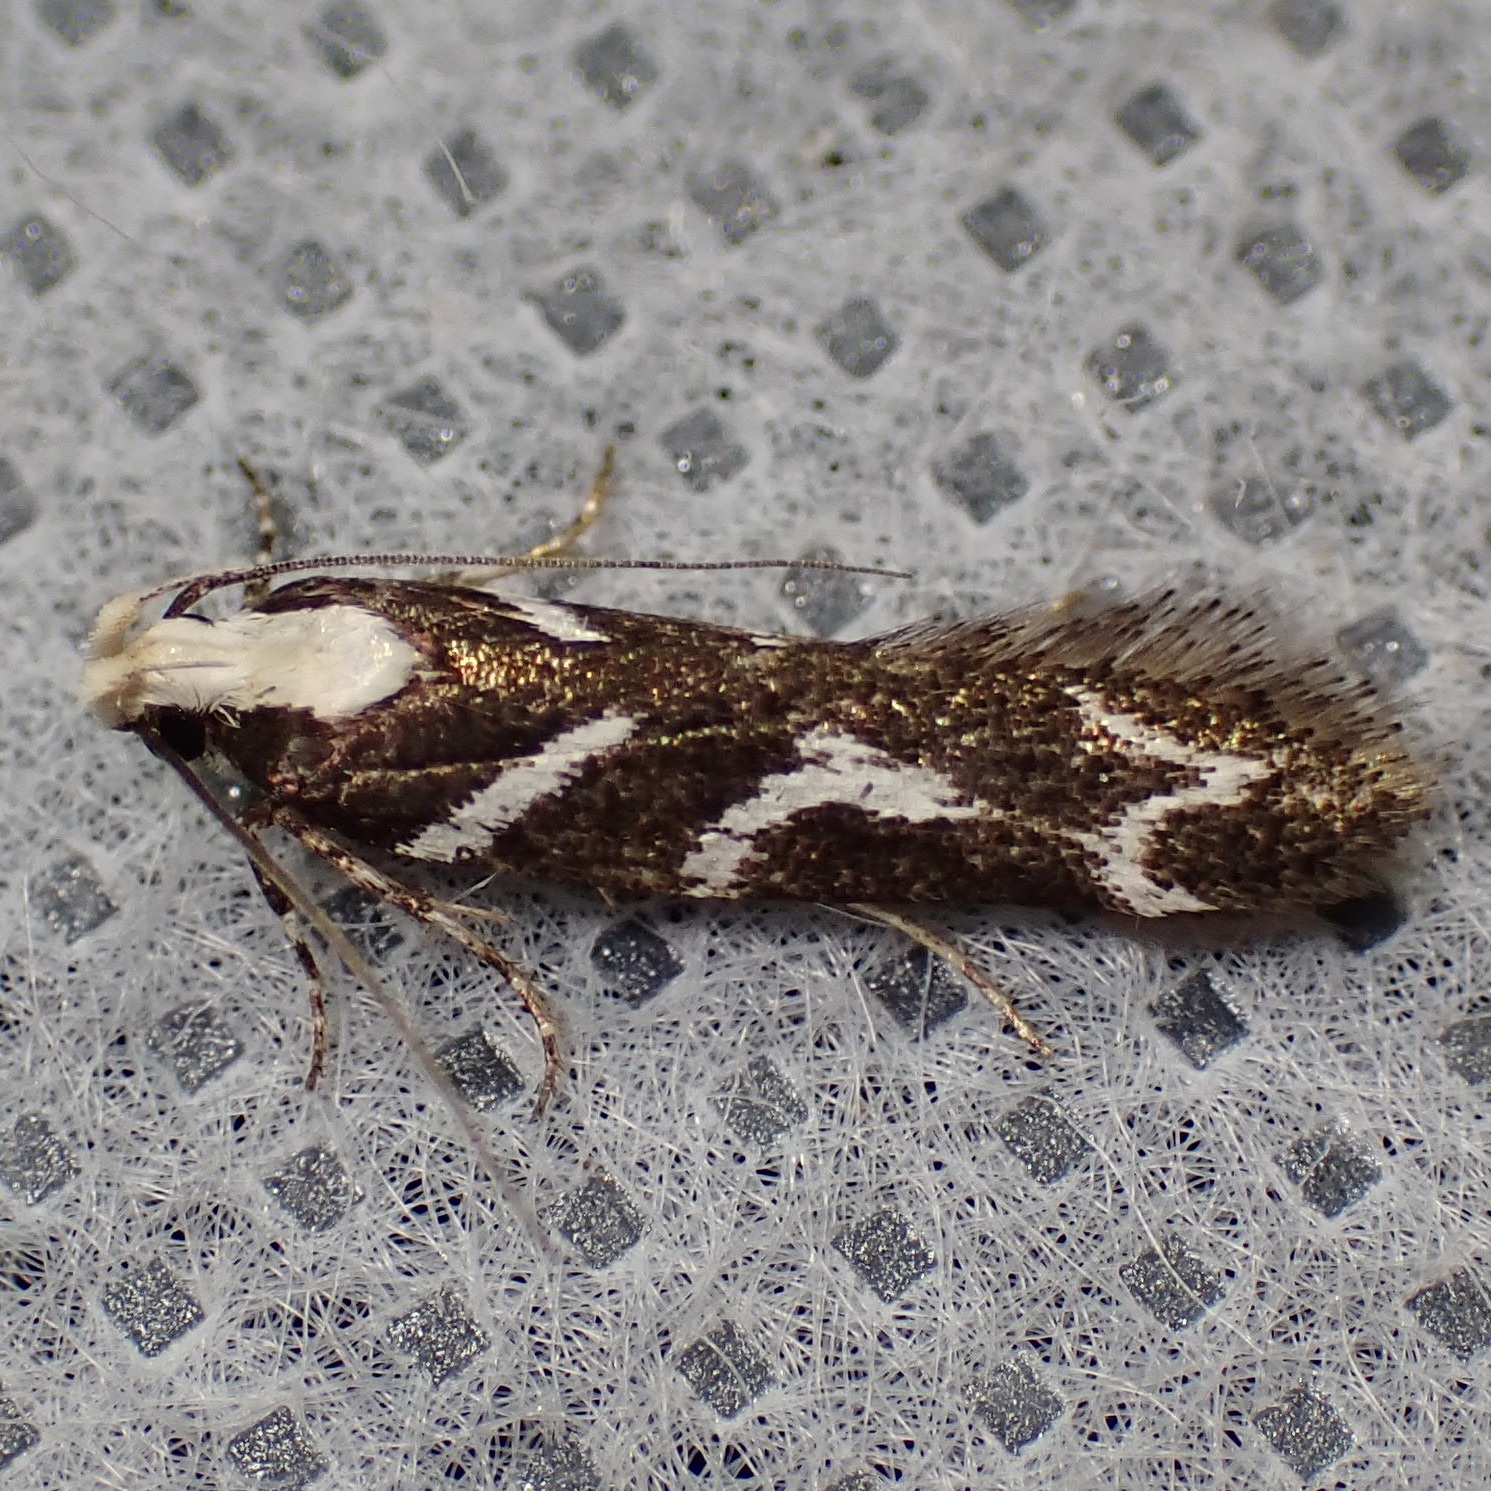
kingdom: Animalia
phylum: Arthropoda
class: Insecta
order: Lepidoptera
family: Gelechiidae
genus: Filatima
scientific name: Filatima albilorella
